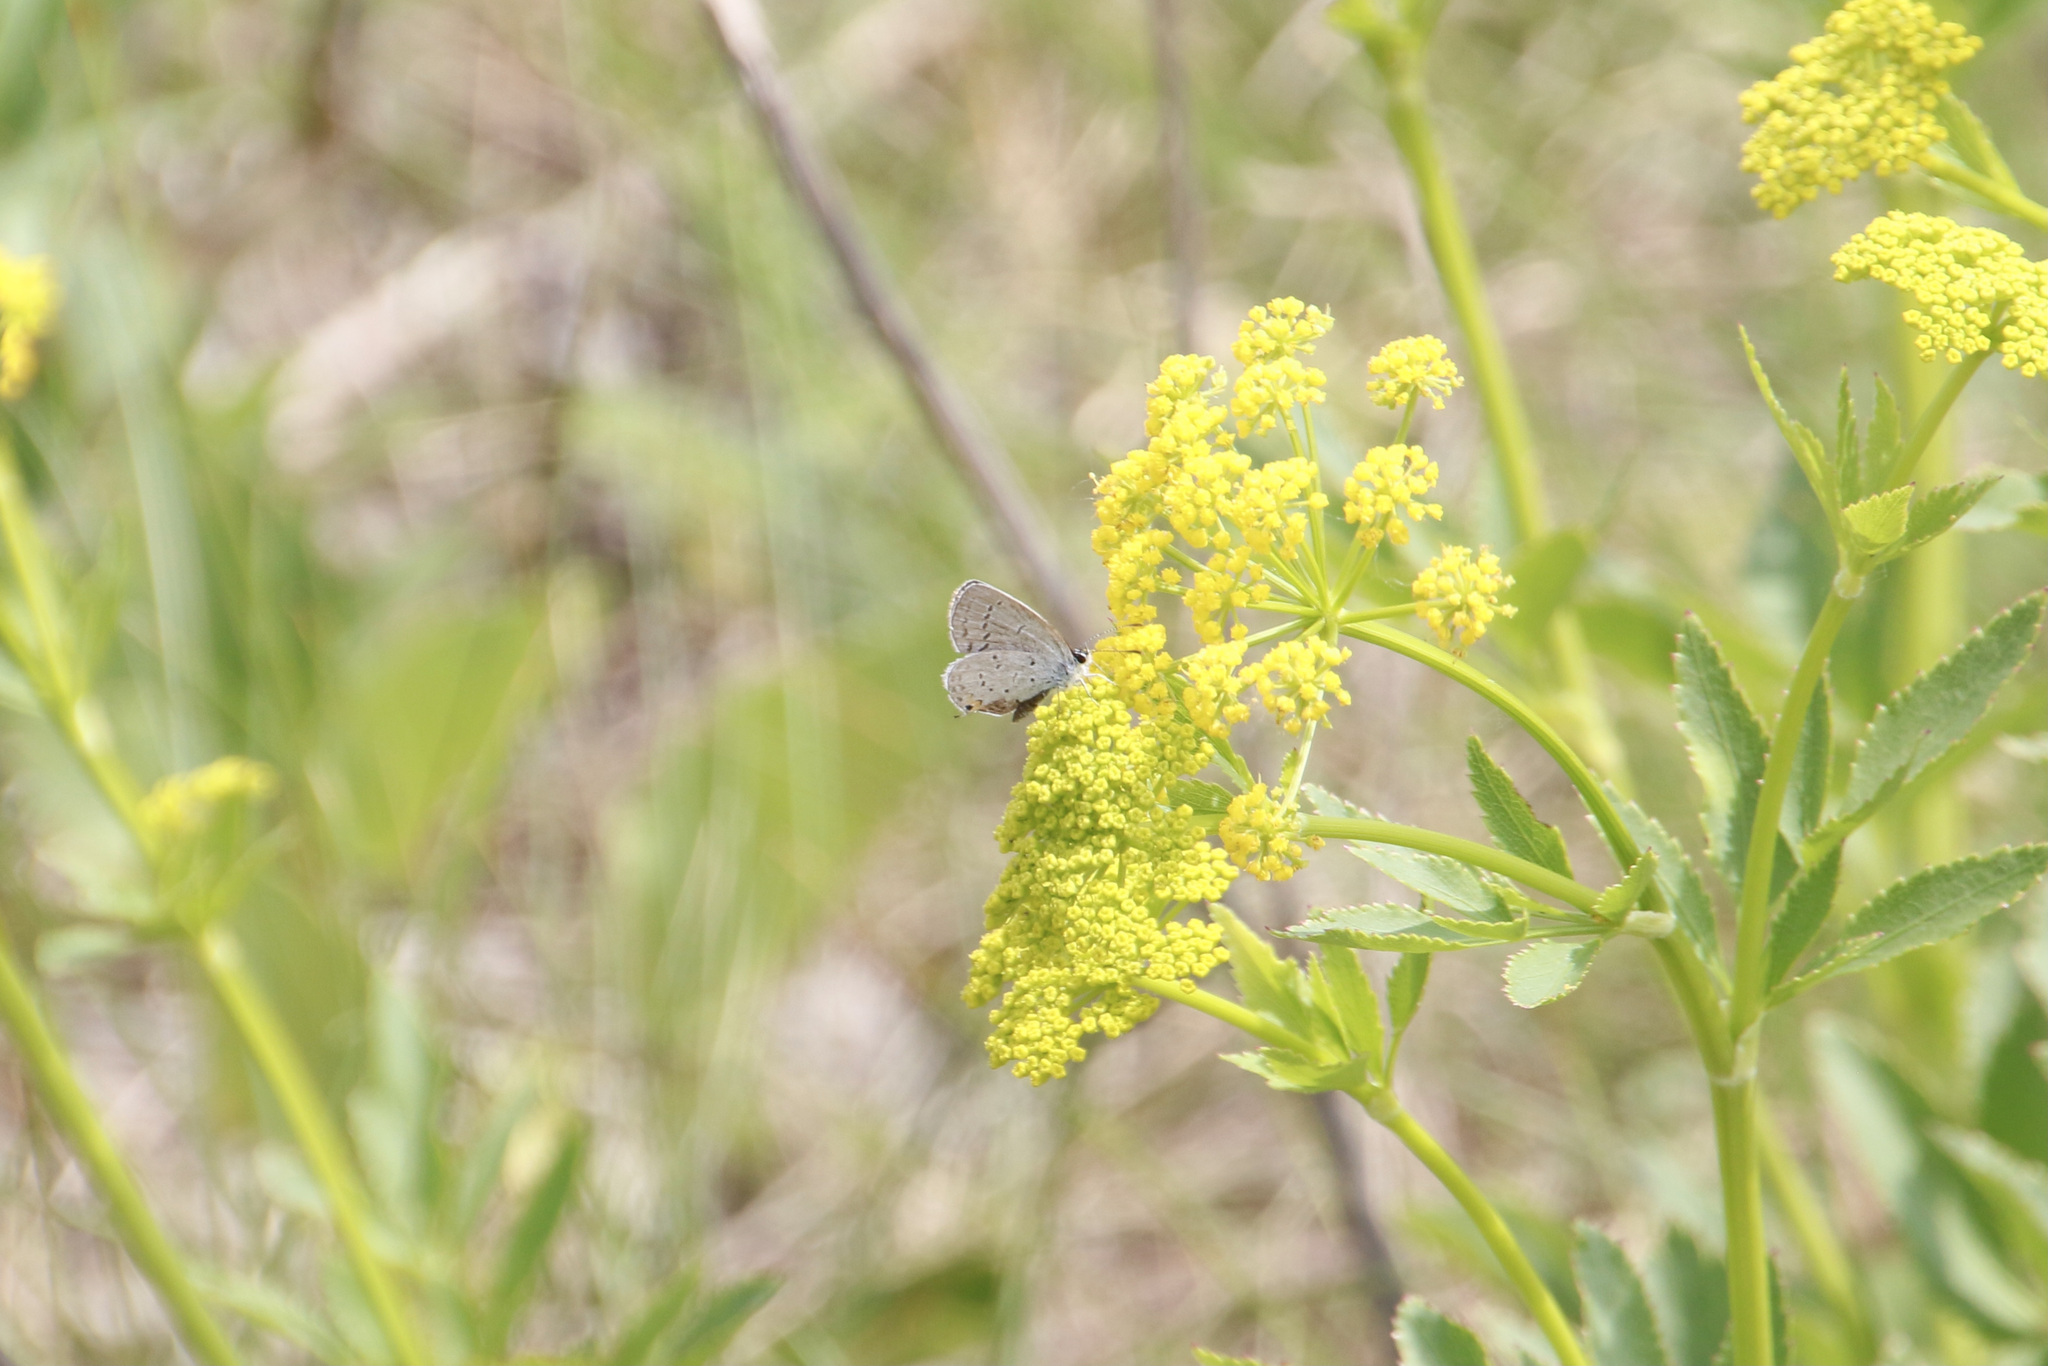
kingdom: Animalia
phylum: Arthropoda
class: Insecta
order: Lepidoptera
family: Lycaenidae
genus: Elkalyce
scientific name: Elkalyce comyntas
